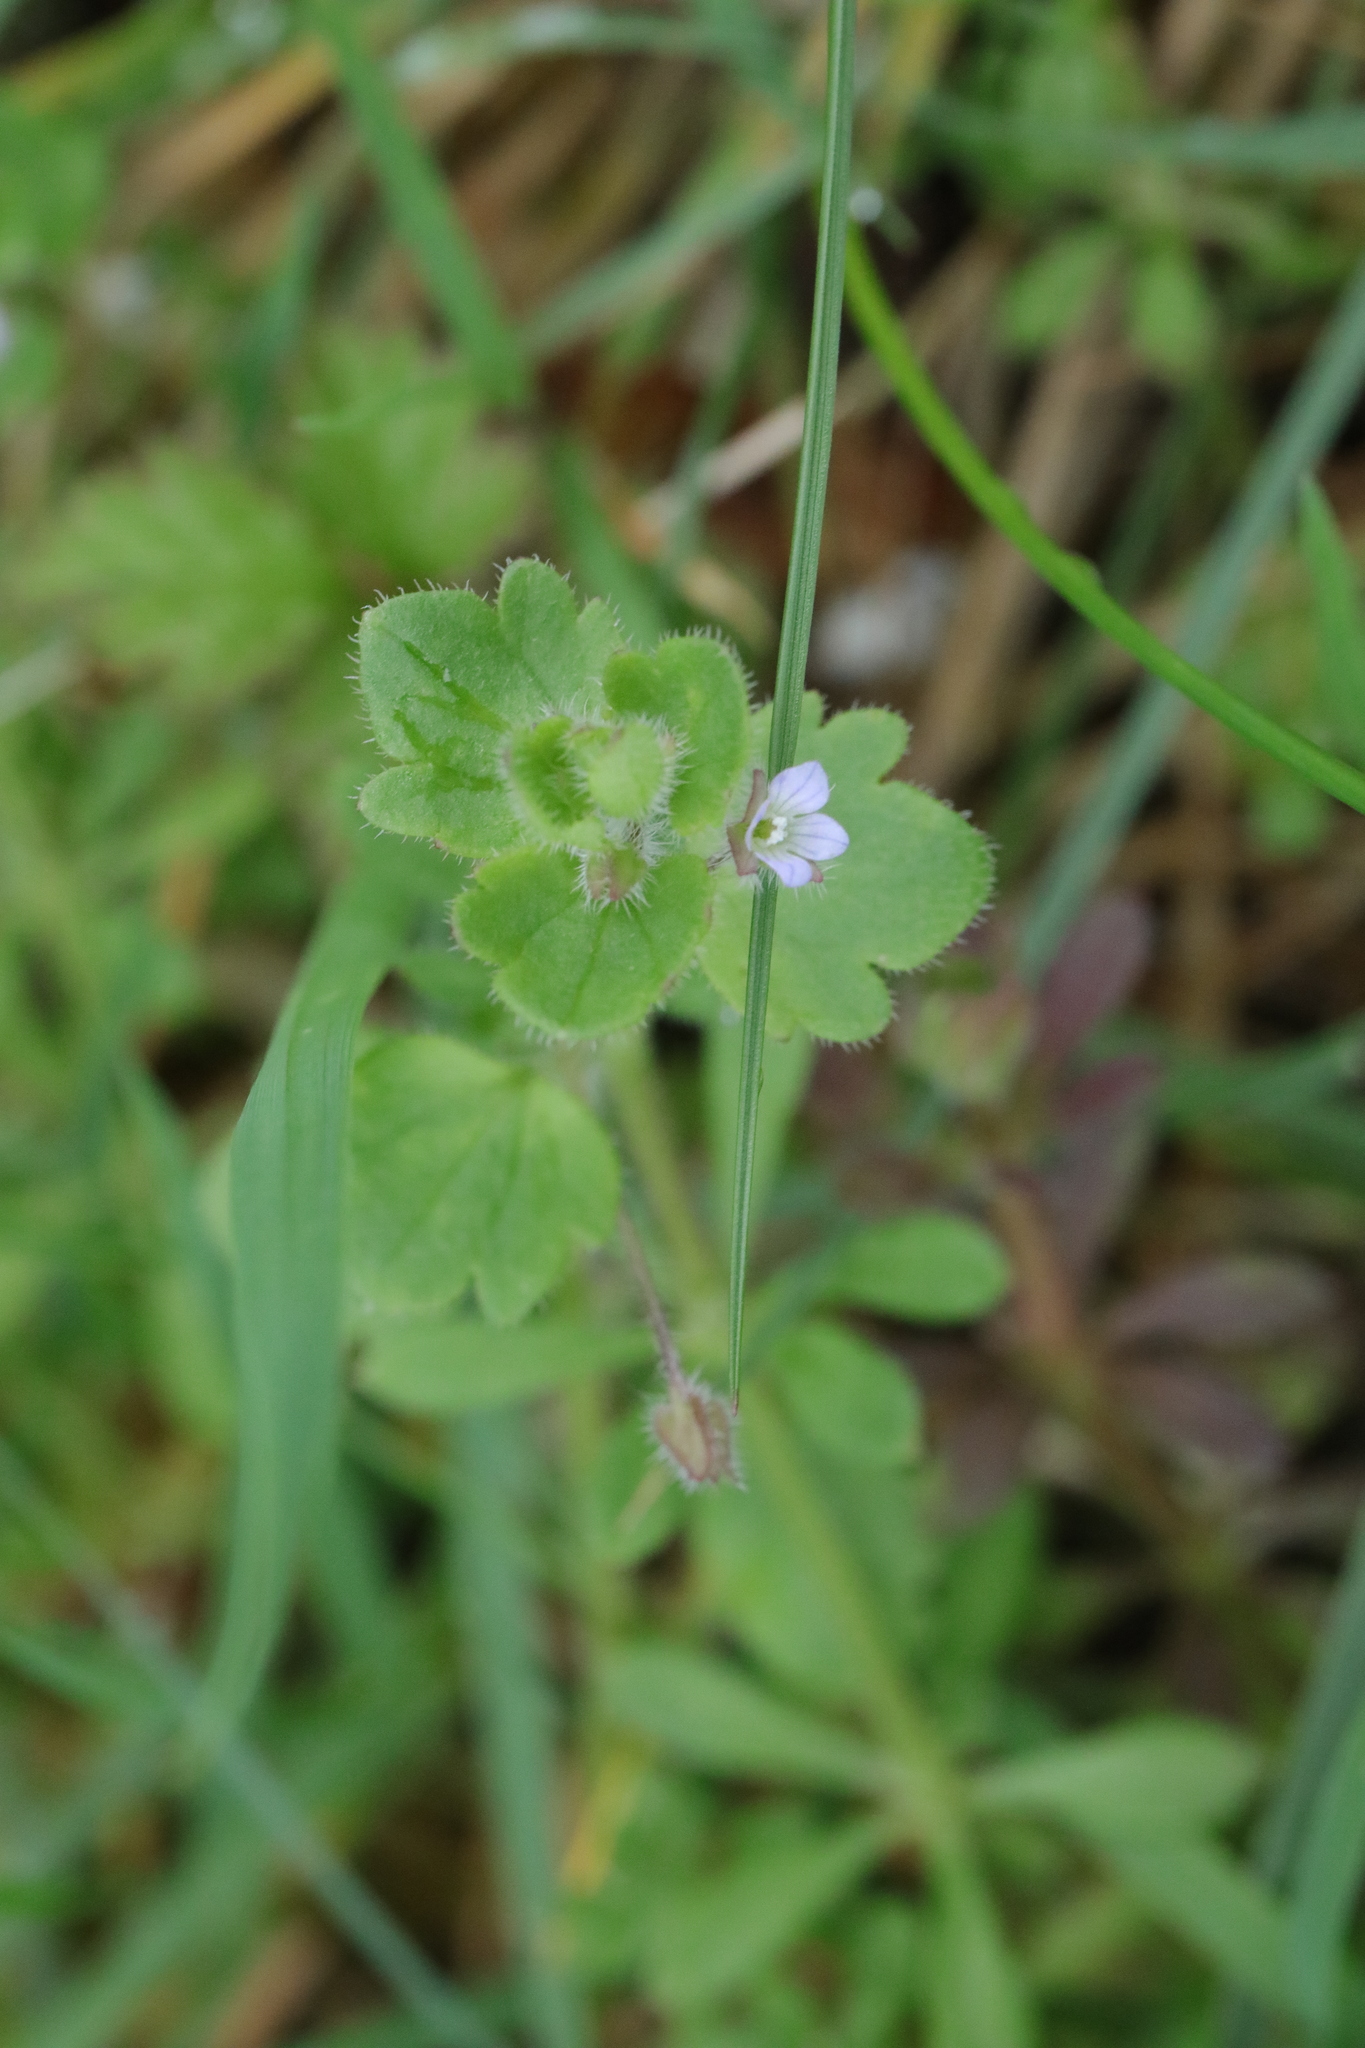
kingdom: Plantae
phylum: Tracheophyta
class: Magnoliopsida
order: Lamiales
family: Plantaginaceae
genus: Veronica
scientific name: Veronica sublobata
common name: False ivy-leaved speedwell
